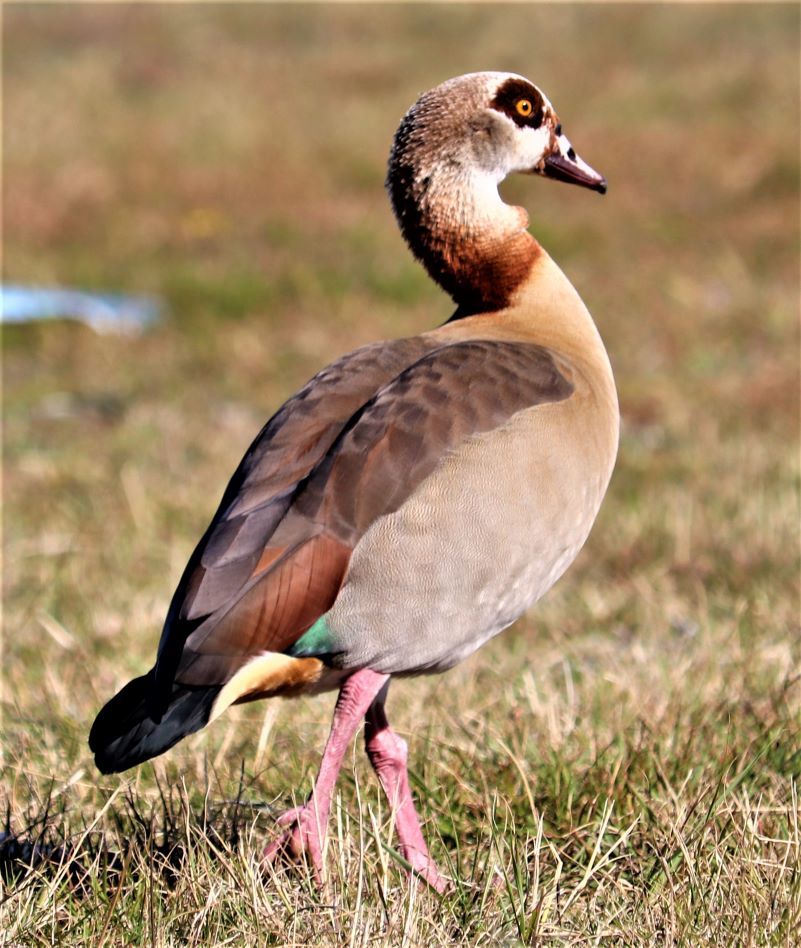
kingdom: Animalia
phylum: Chordata
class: Aves
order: Anseriformes
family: Anatidae
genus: Alopochen
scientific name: Alopochen aegyptiaca
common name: Egyptian goose
